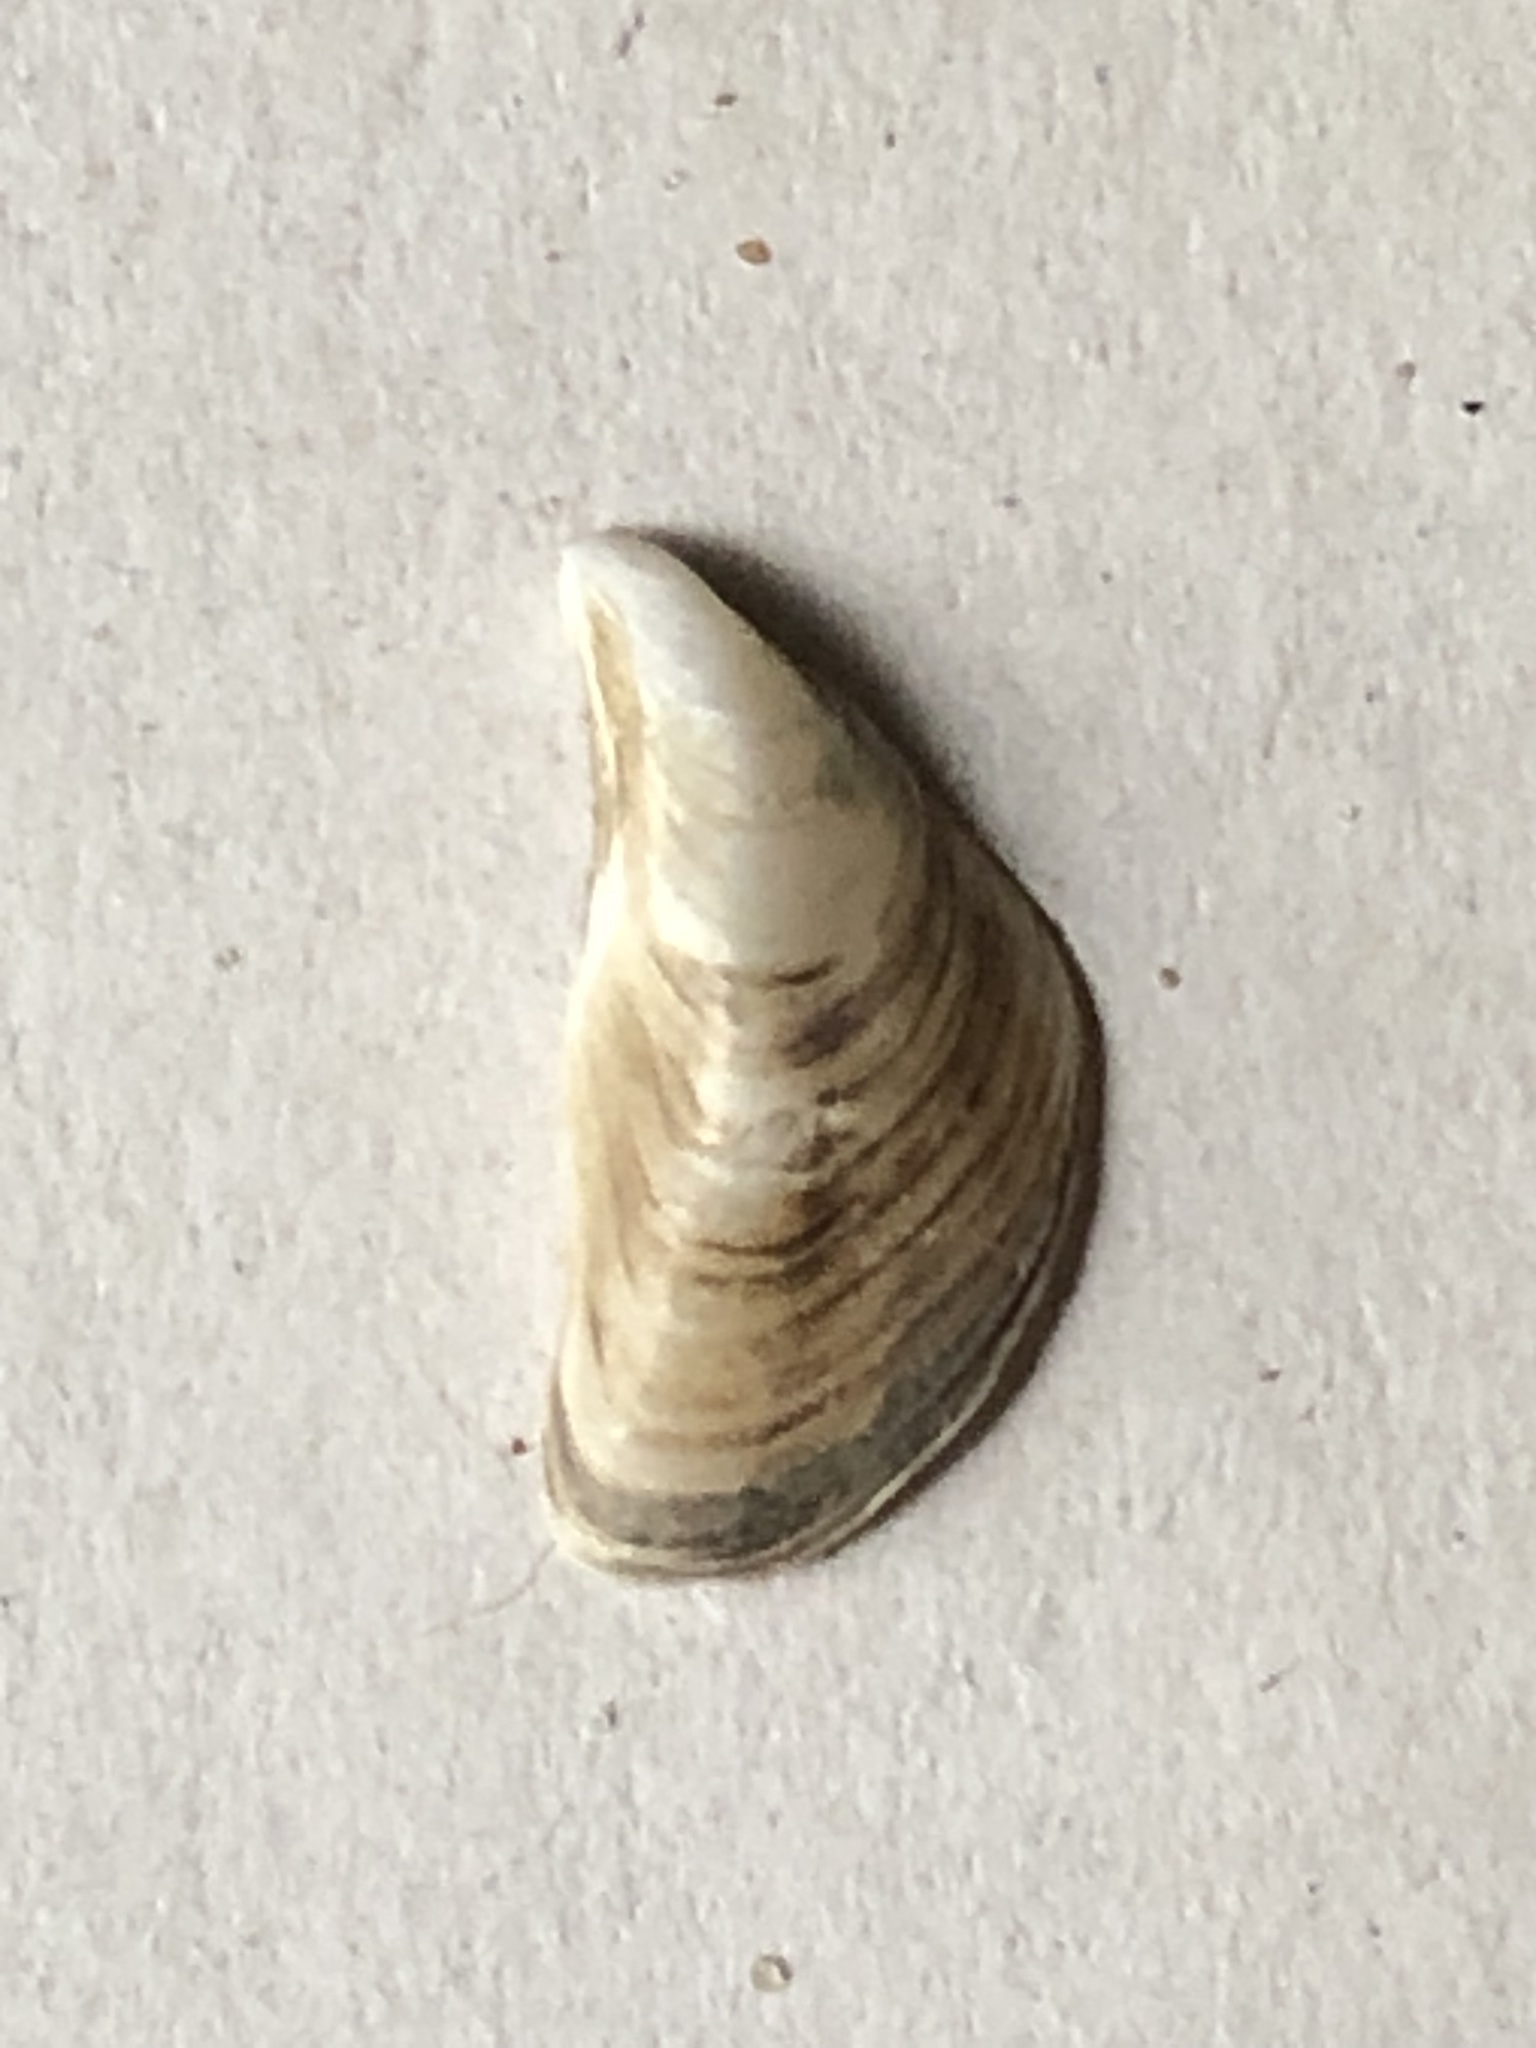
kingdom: Animalia
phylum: Mollusca
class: Bivalvia
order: Myida
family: Dreissenidae
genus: Dreissena
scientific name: Dreissena bugensis
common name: Quagga mussel
